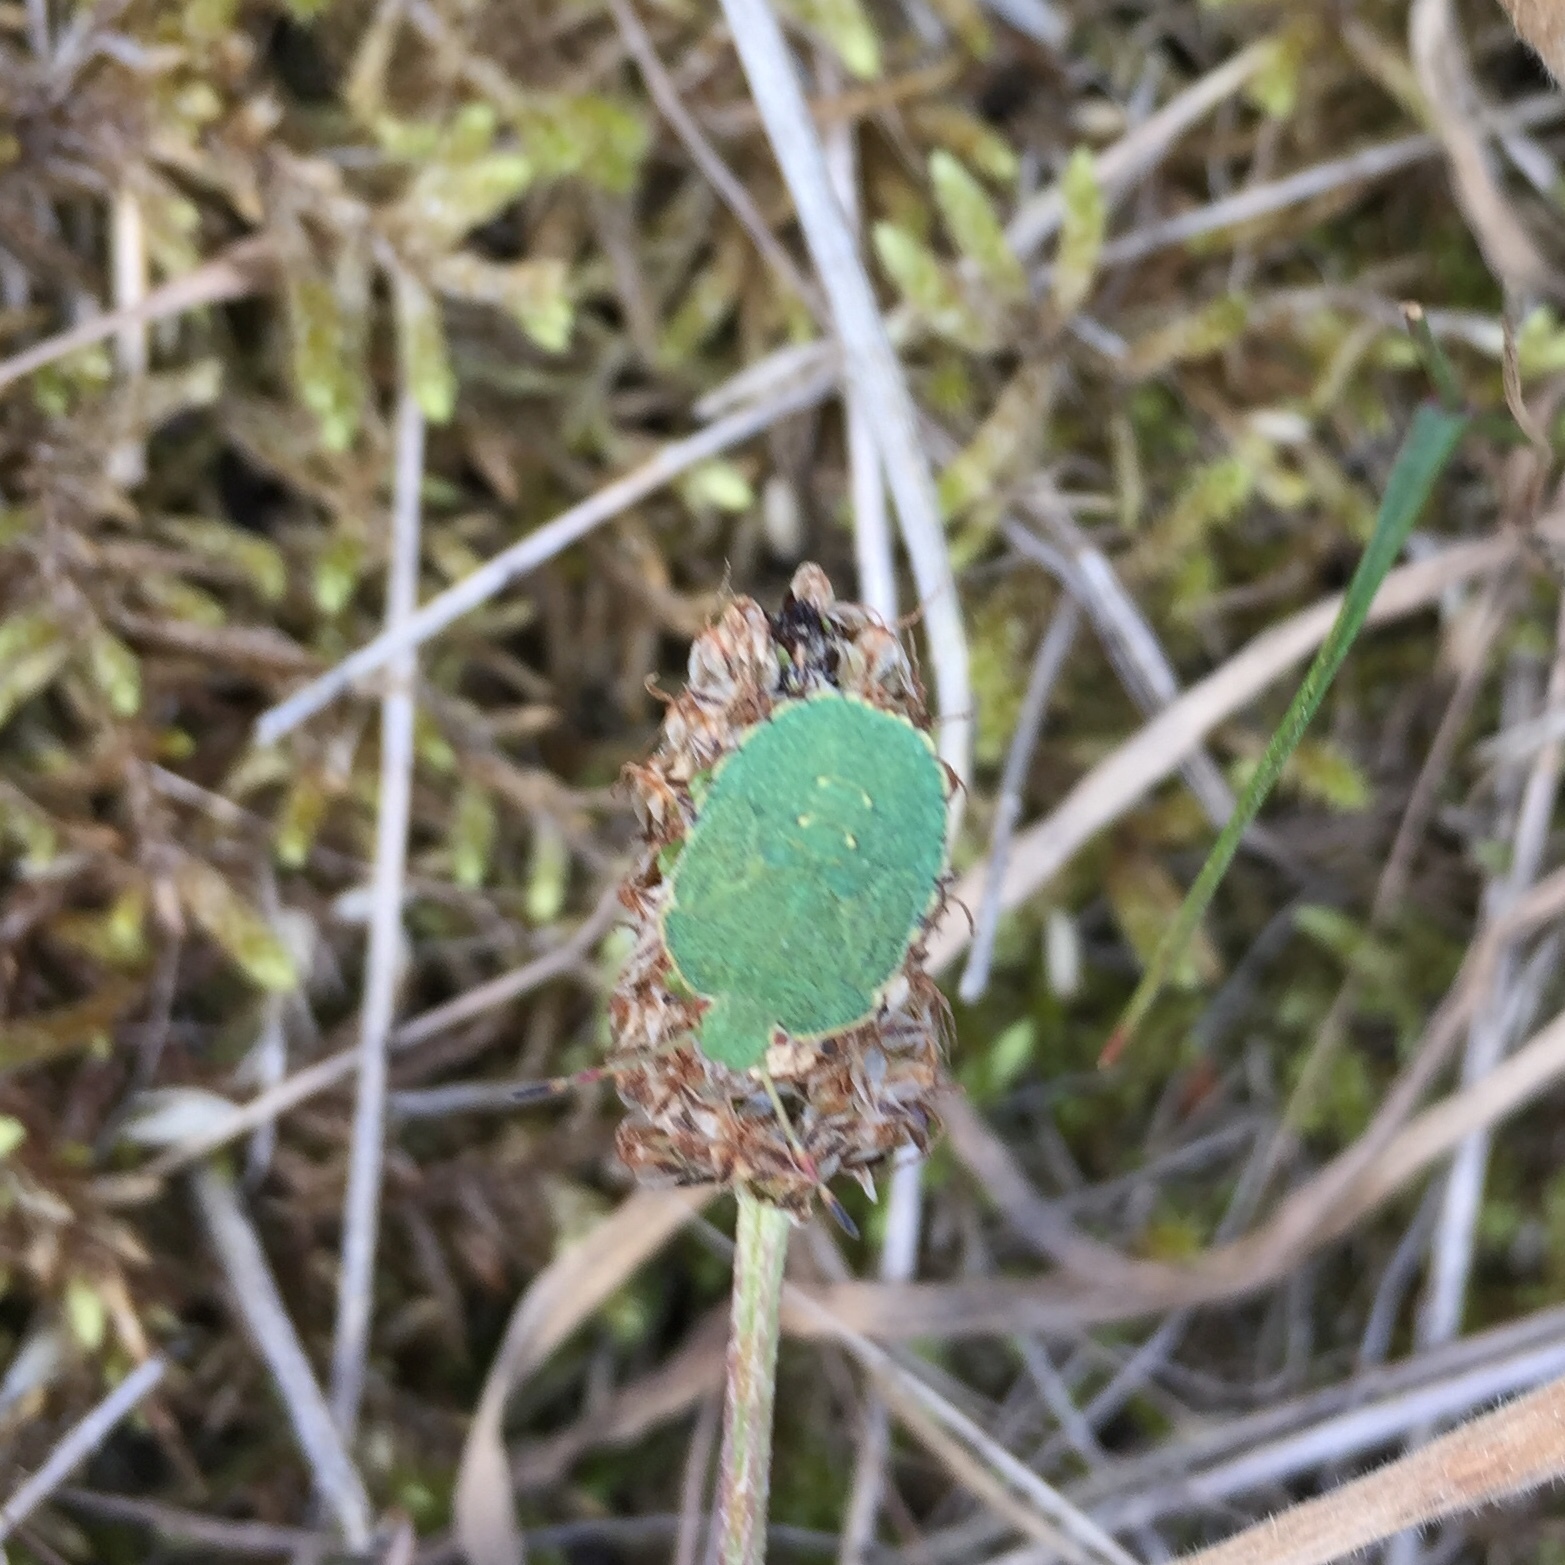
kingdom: Animalia
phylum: Arthropoda
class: Insecta
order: Hemiptera
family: Pentatomidae
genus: Palomena
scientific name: Palomena prasina
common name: Green shieldbug
